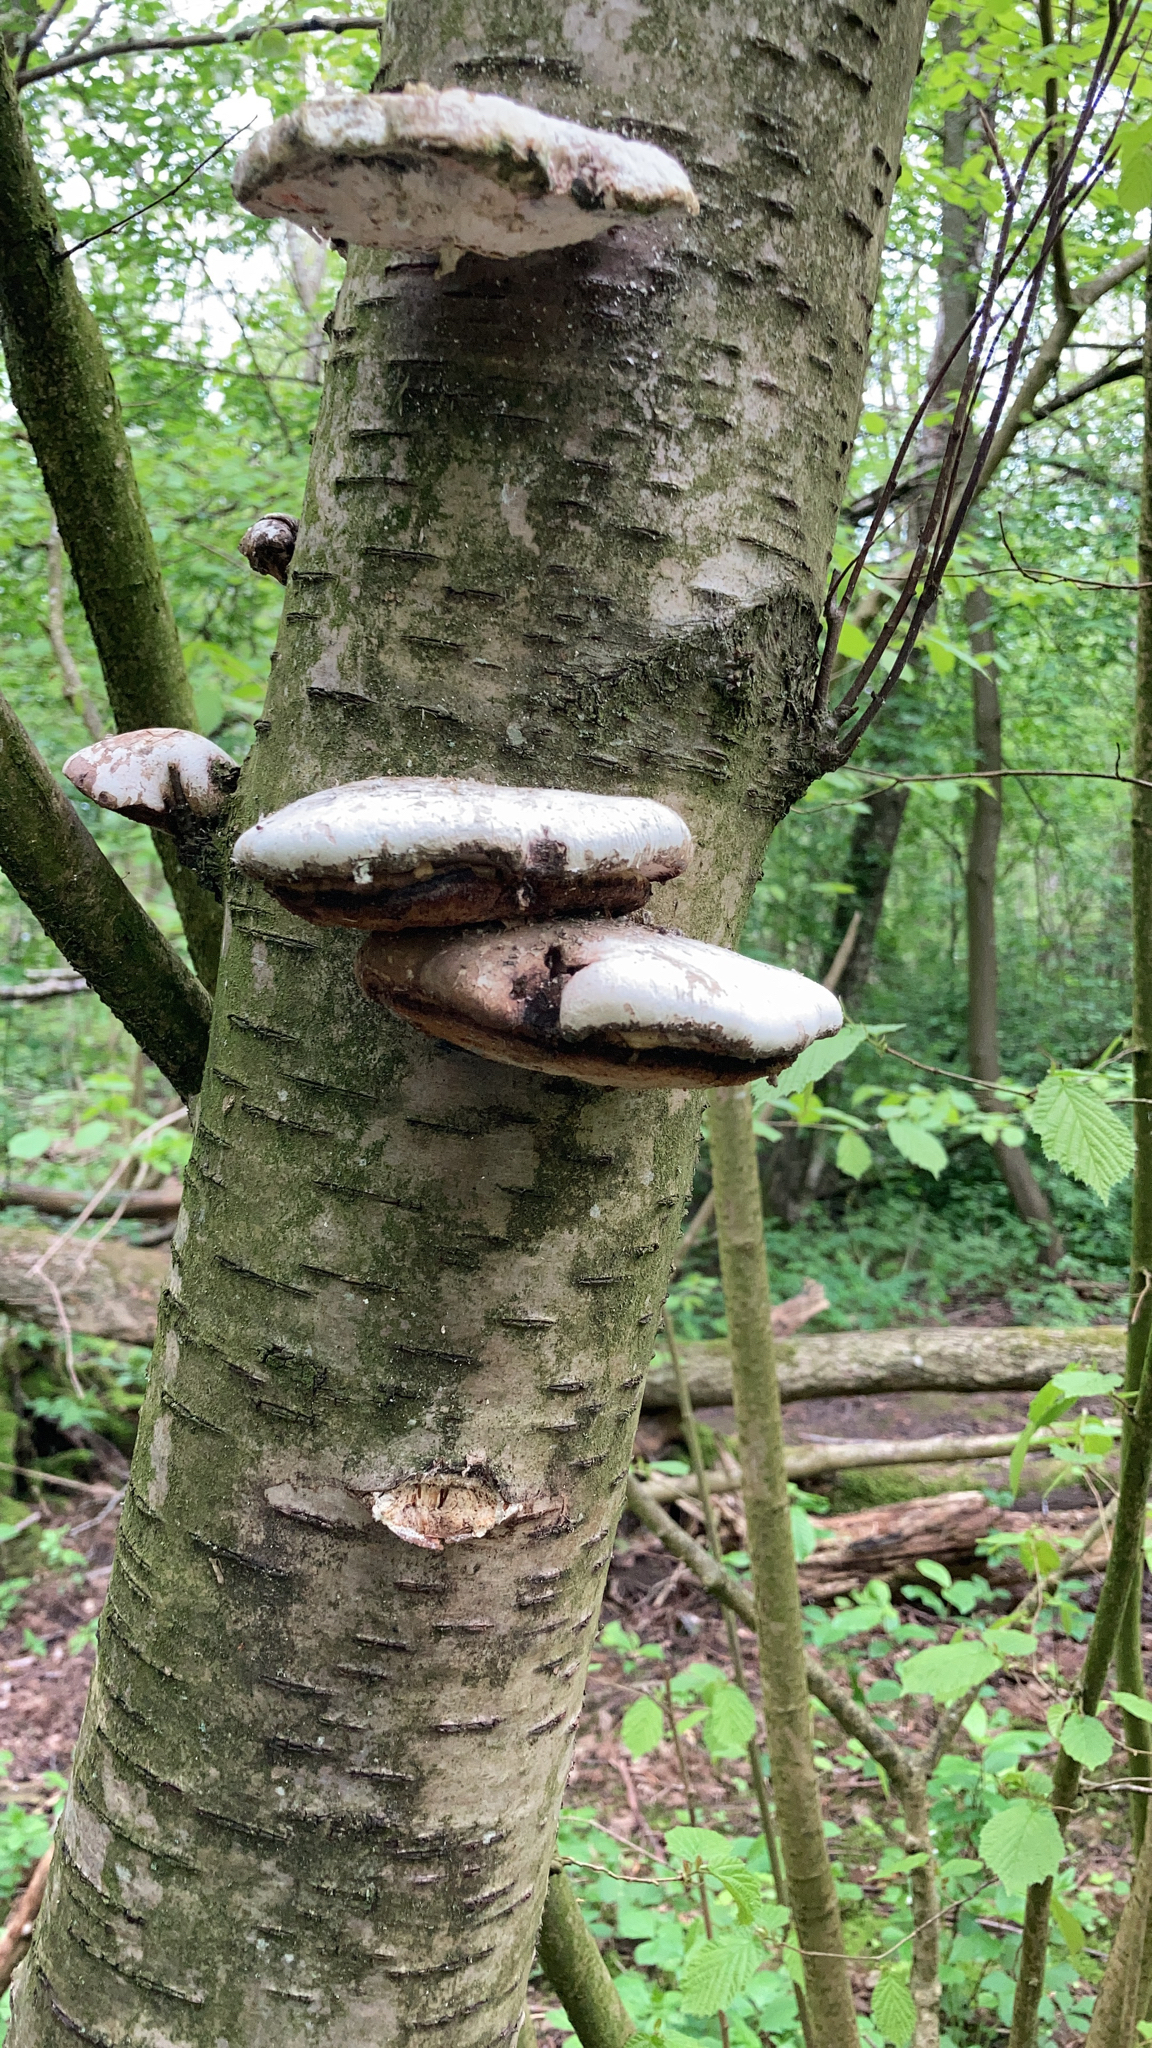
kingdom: Fungi
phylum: Basidiomycota
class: Agaricomycetes
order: Polyporales
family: Fomitopsidaceae
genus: Fomitopsis
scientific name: Fomitopsis betulina
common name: Birch polypore
